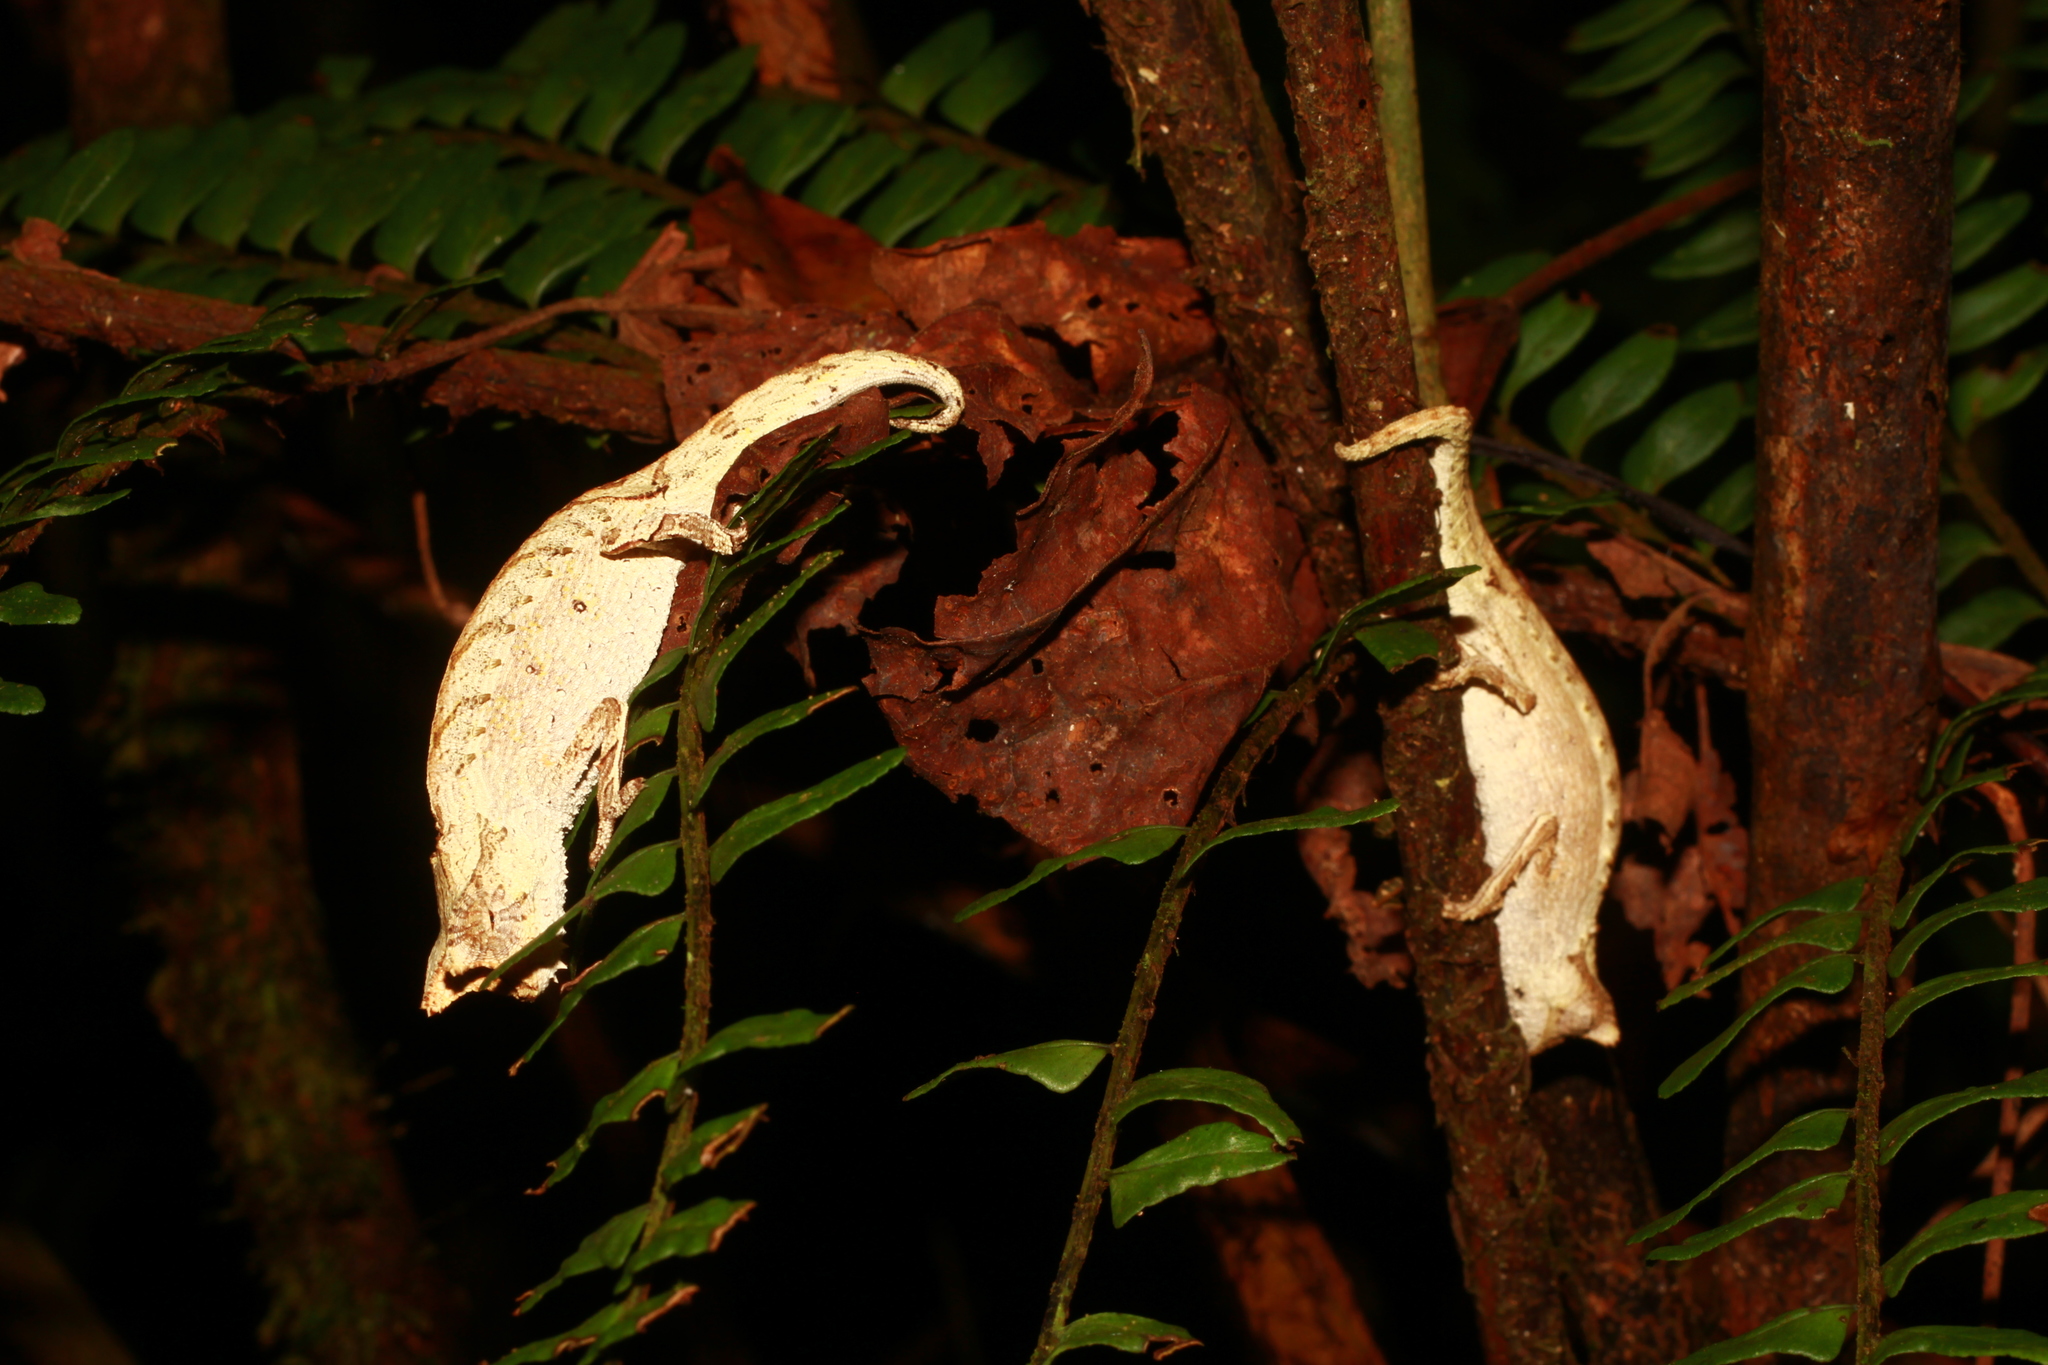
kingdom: Animalia
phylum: Chordata
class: Squamata
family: Chamaeleonidae
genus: Brookesia
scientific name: Brookesia superciliaris
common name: Brown leaf chameleon
